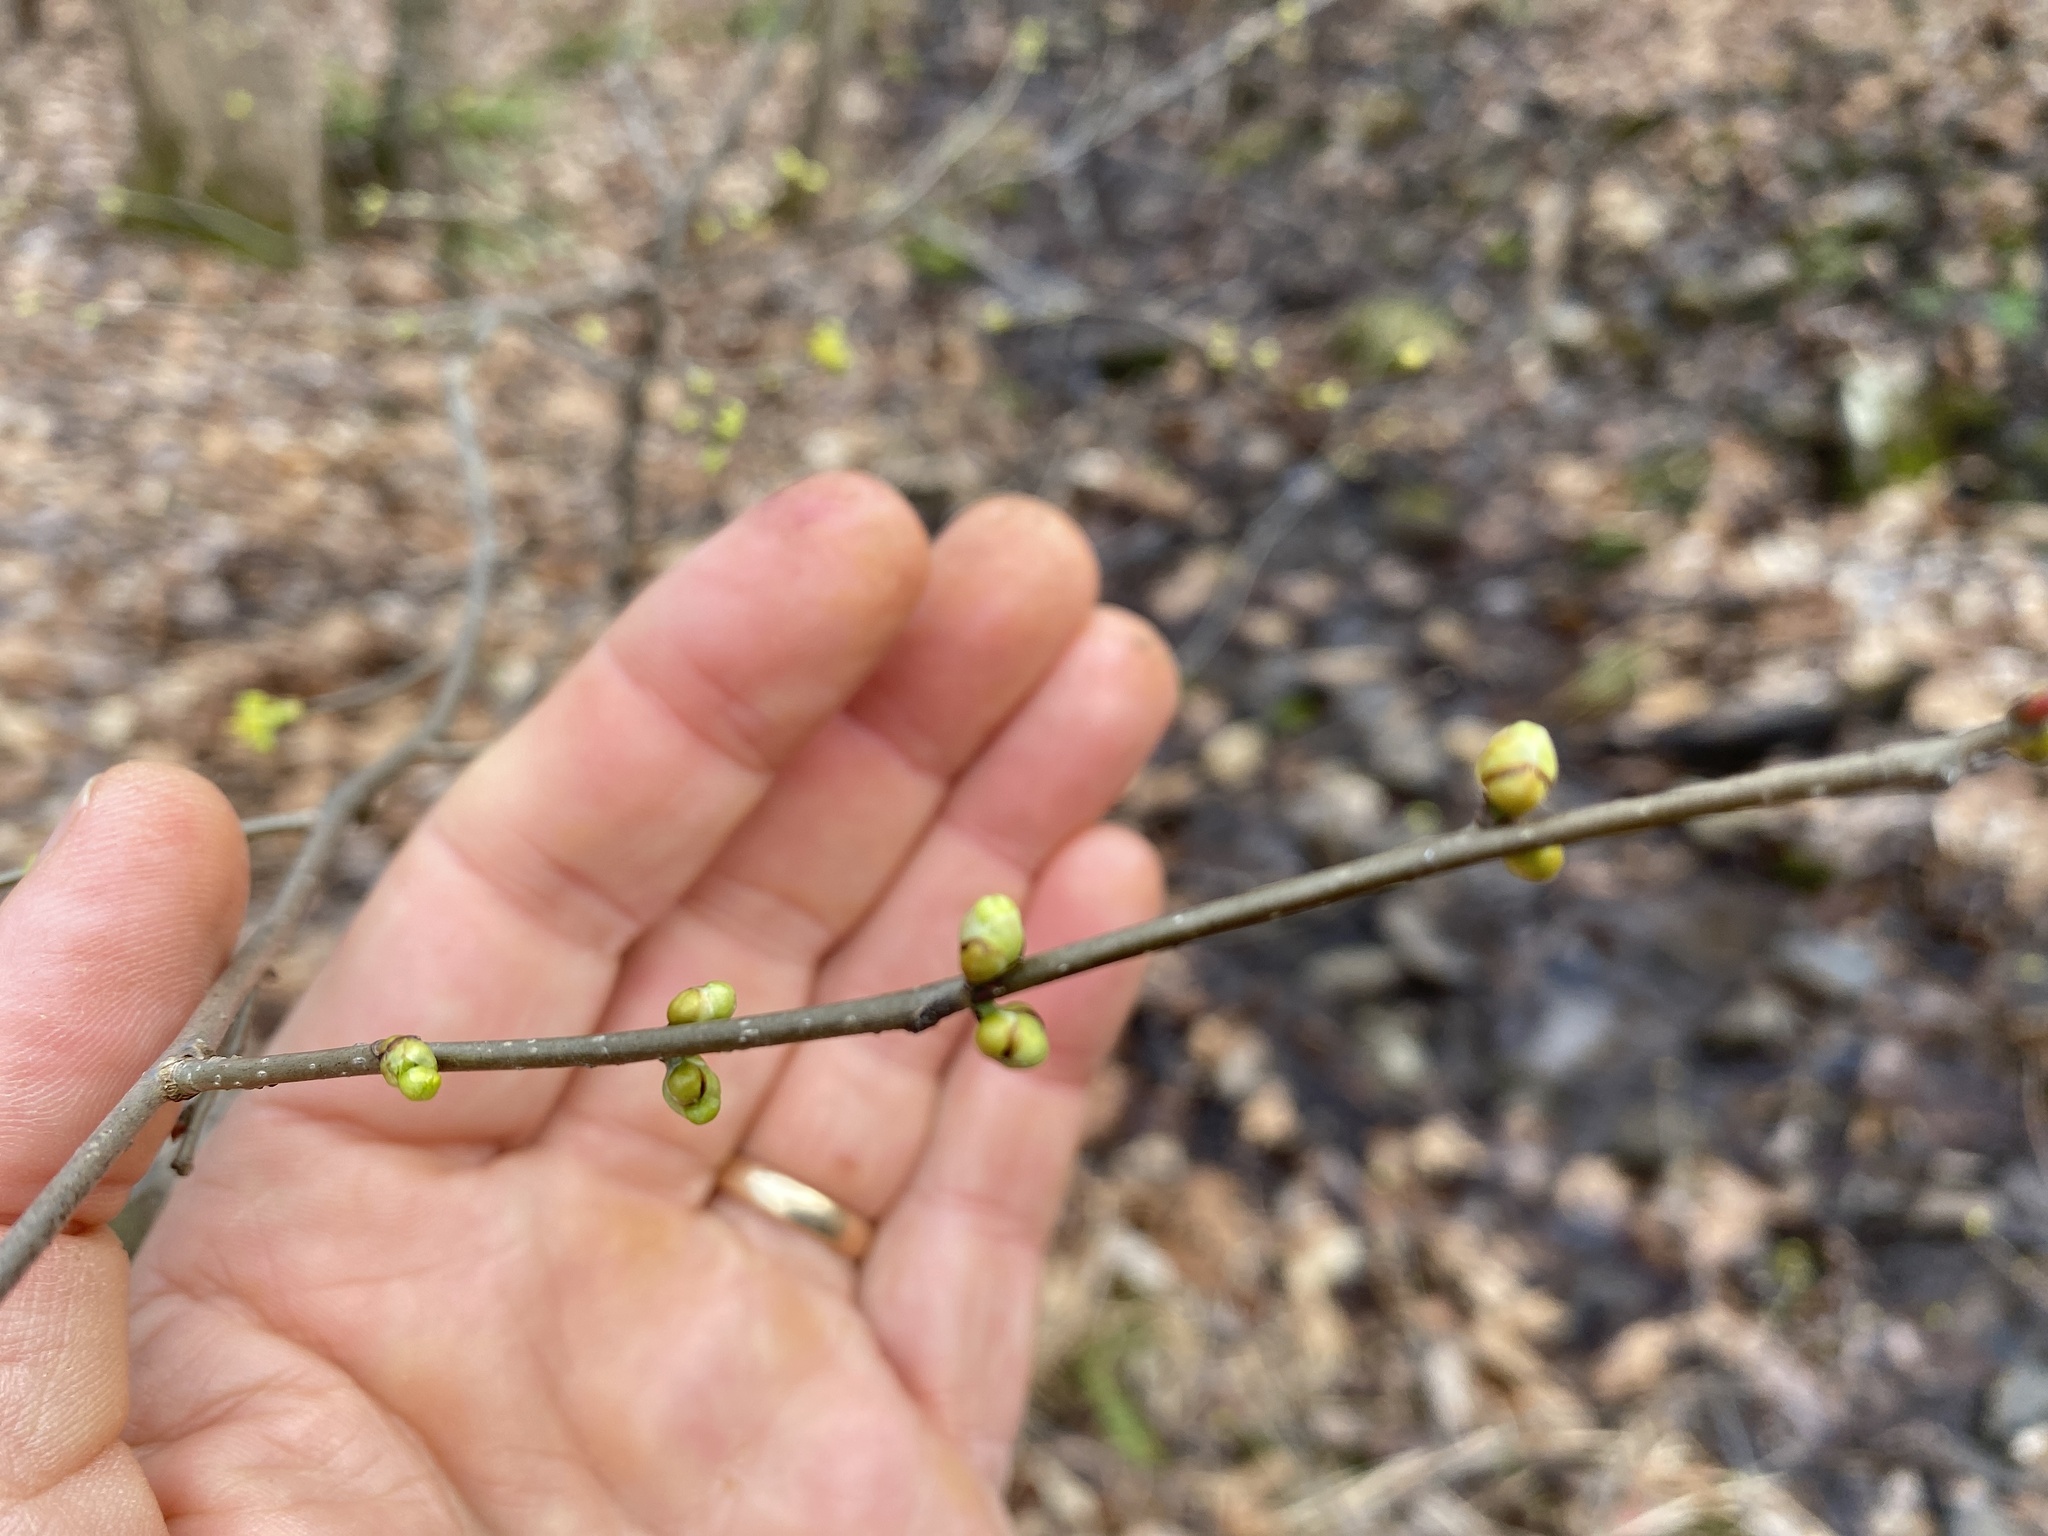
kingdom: Plantae
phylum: Tracheophyta
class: Magnoliopsida
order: Laurales
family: Lauraceae
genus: Lindera
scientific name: Lindera benzoin
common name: Spicebush
